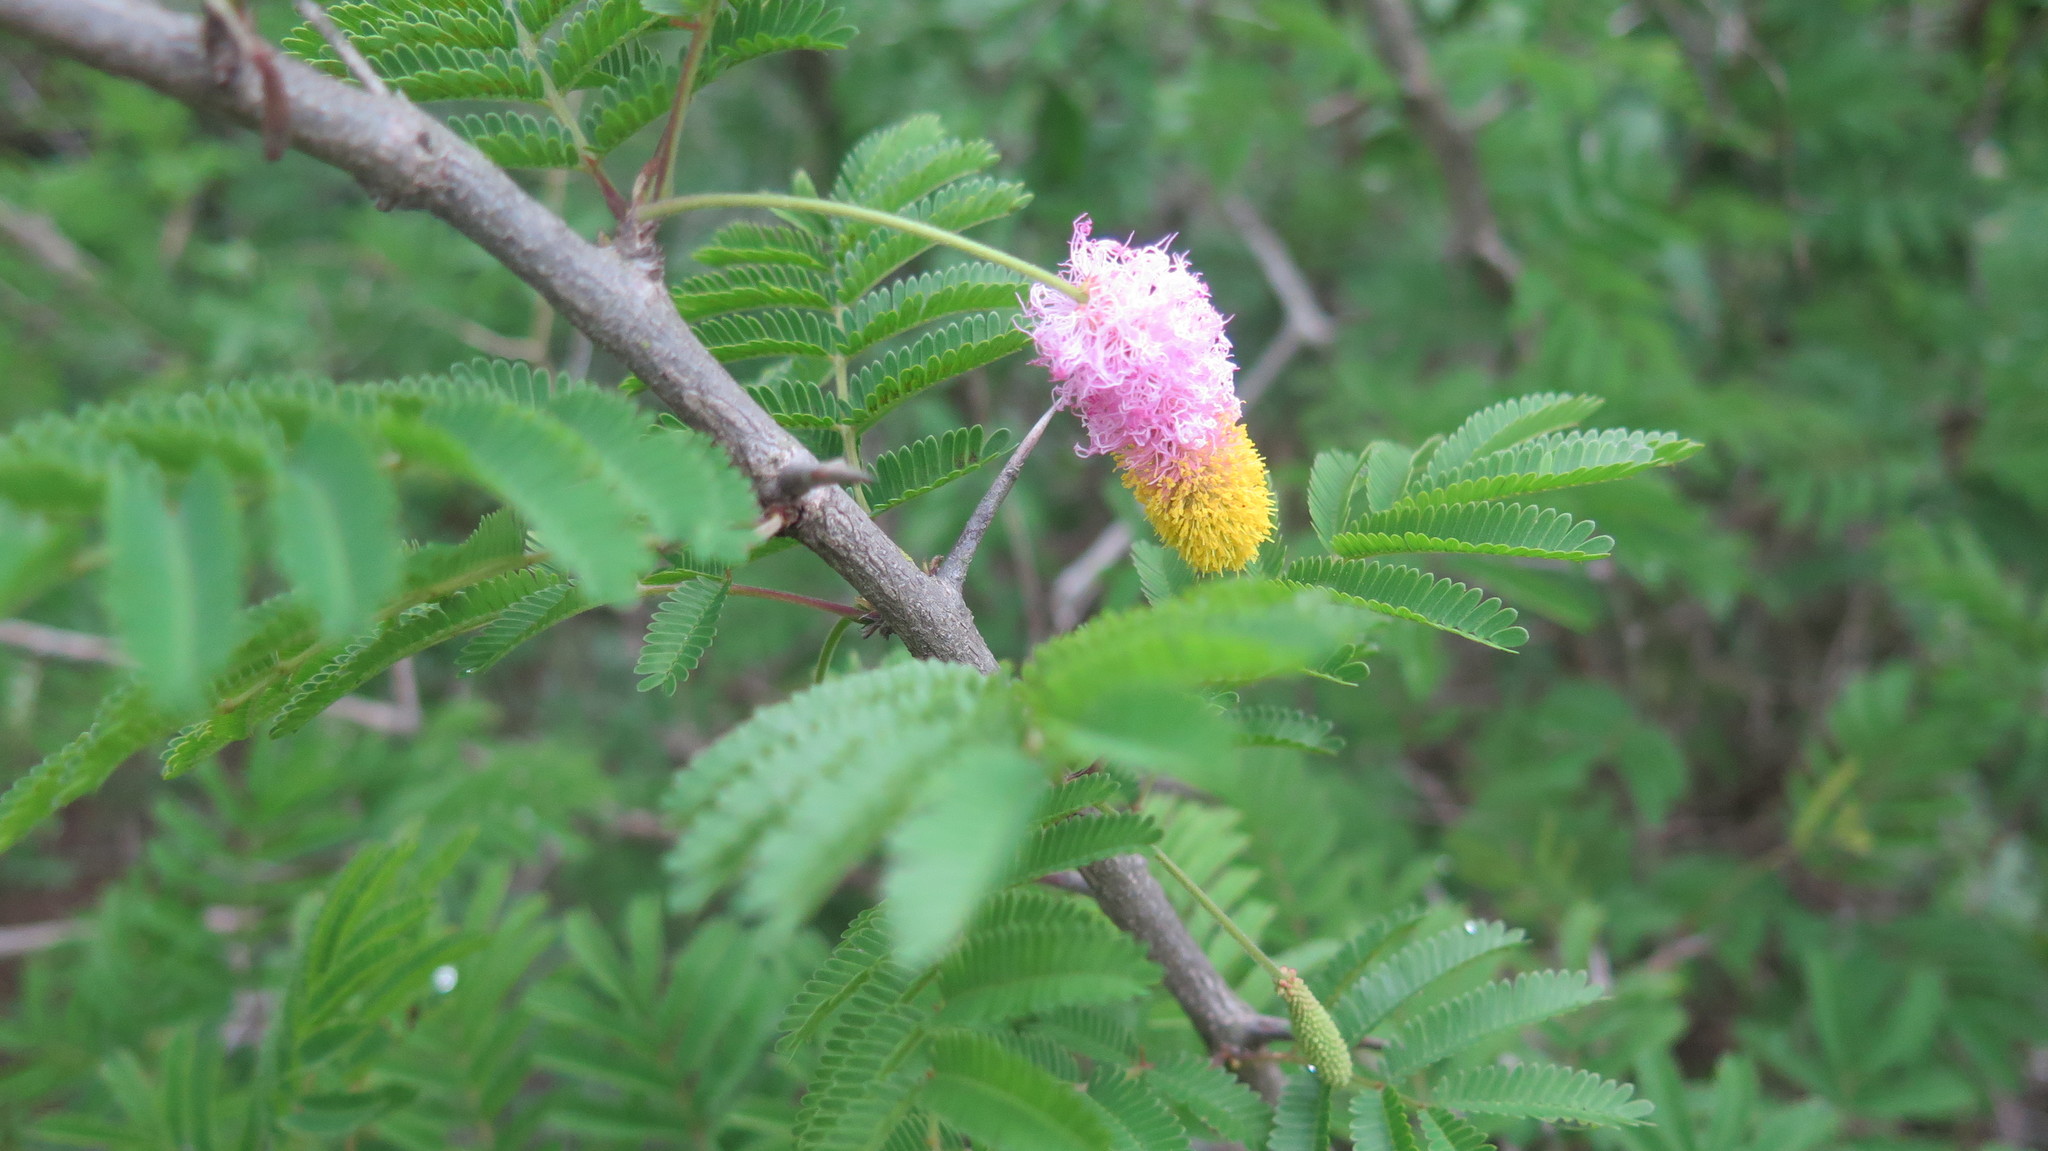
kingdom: Plantae
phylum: Tracheophyta
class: Magnoliopsida
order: Fabales
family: Fabaceae
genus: Dichrostachys
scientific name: Dichrostachys cinerea
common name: Sicklebush
